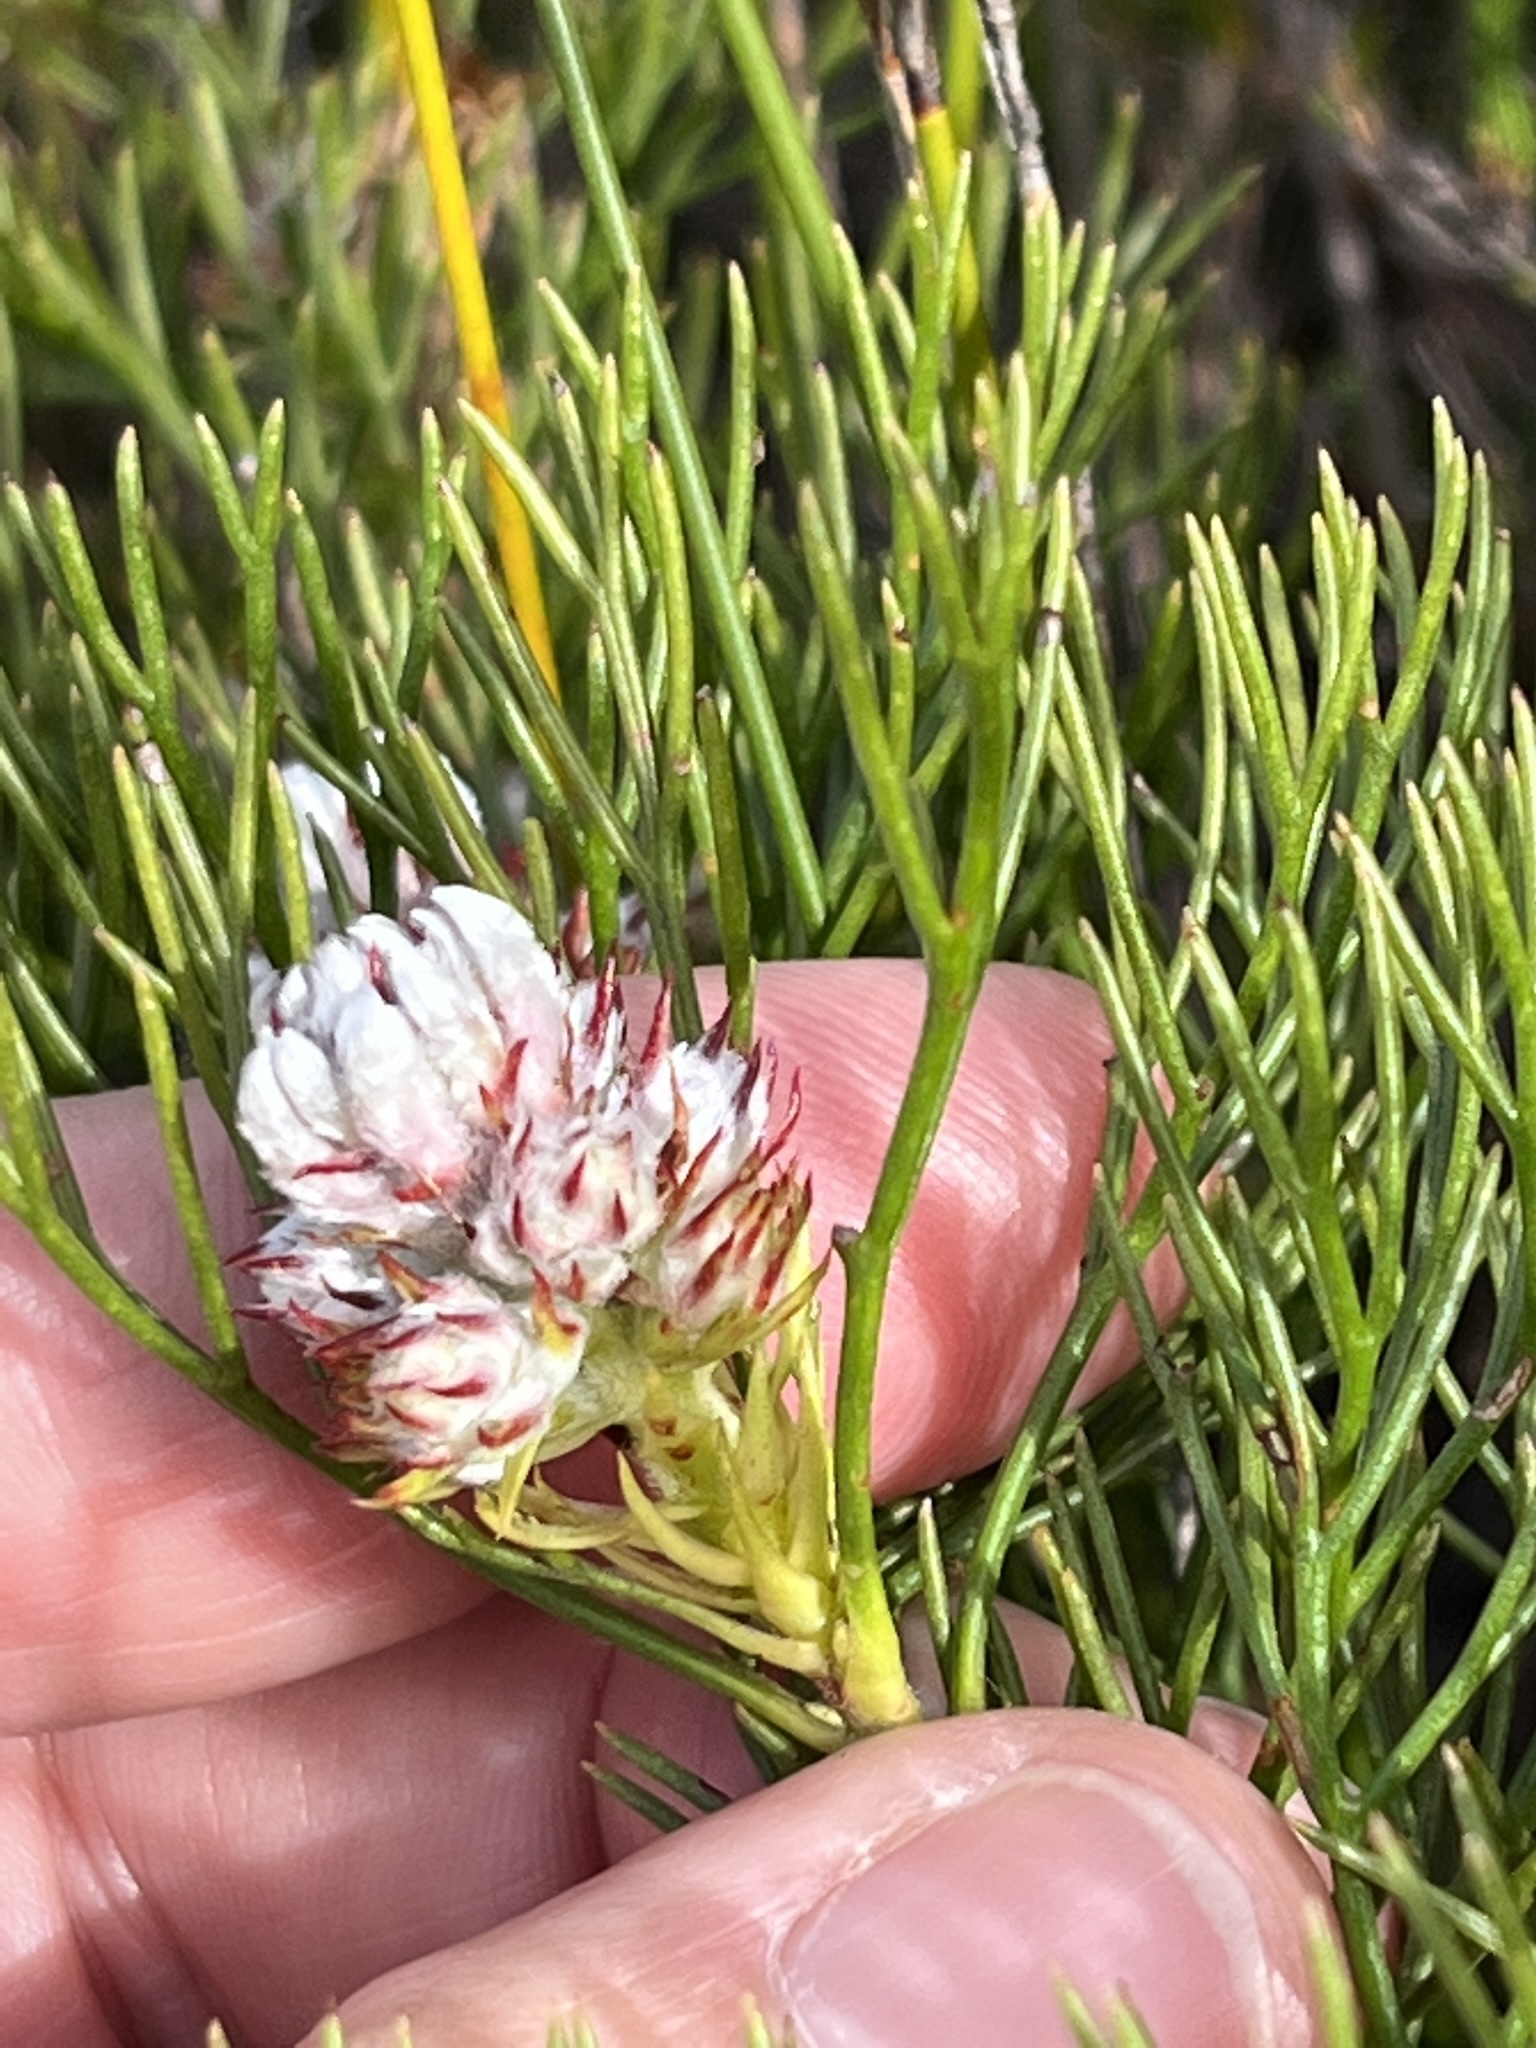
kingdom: Plantae
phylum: Tracheophyta
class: Magnoliopsida
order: Proteales
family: Proteaceae
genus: Serruria
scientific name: Serruria ascendens
